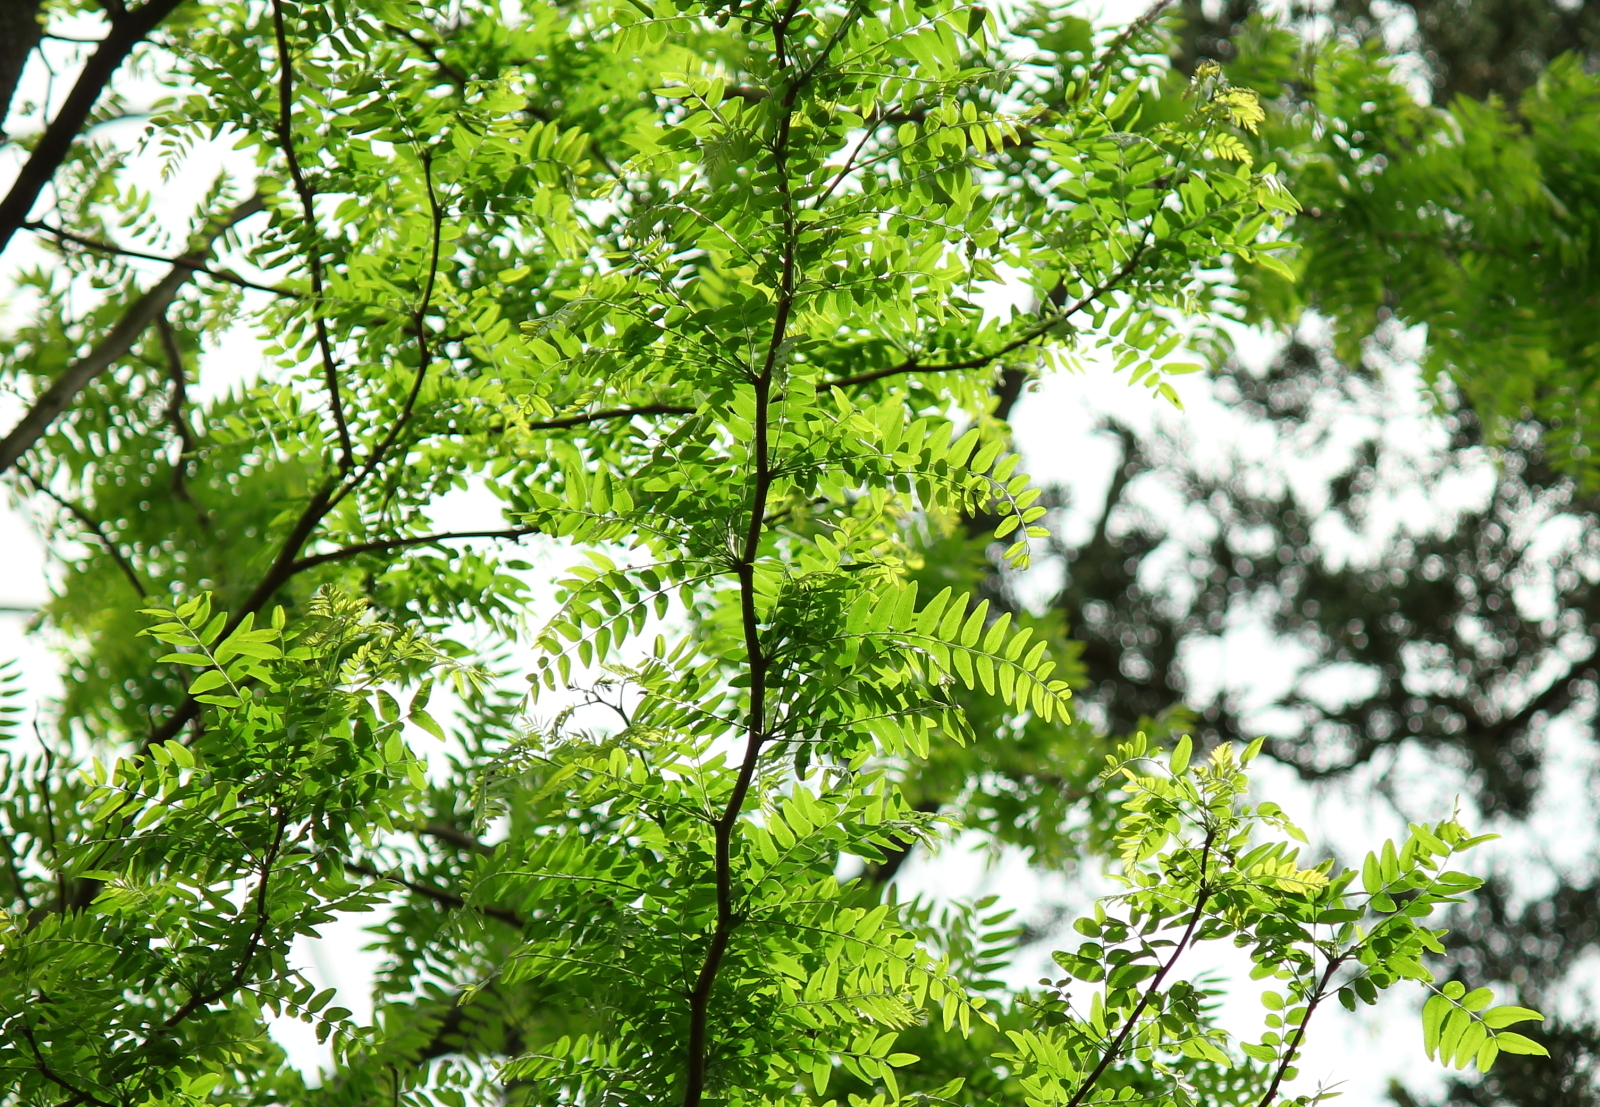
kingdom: Plantae
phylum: Tracheophyta
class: Magnoliopsida
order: Fabales
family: Fabaceae
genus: Gleditsia
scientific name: Gleditsia triacanthos
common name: Common honeylocust
